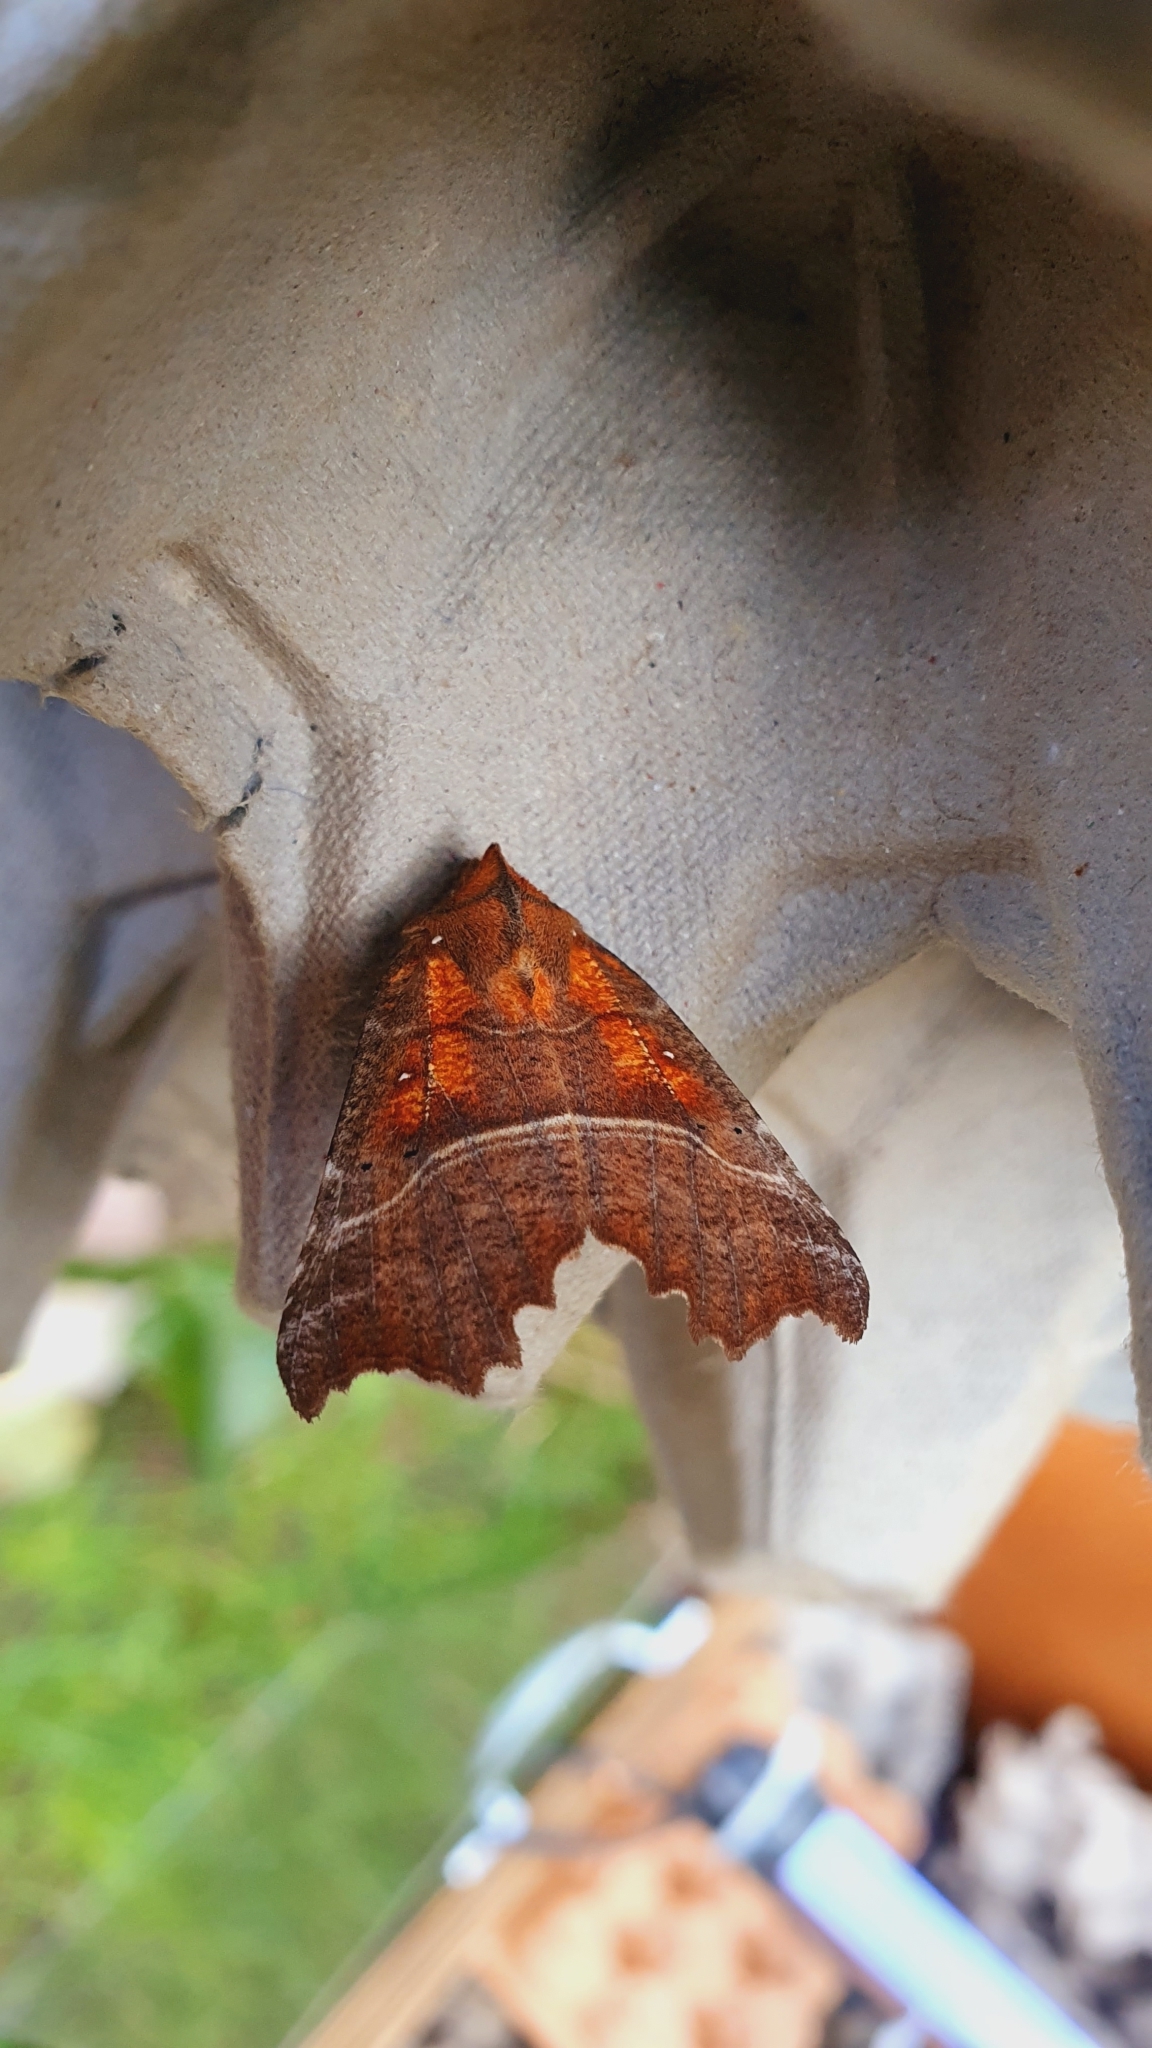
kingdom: Animalia
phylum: Arthropoda
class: Insecta
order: Lepidoptera
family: Erebidae
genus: Scoliopteryx
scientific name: Scoliopteryx libatrix
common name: Herald
